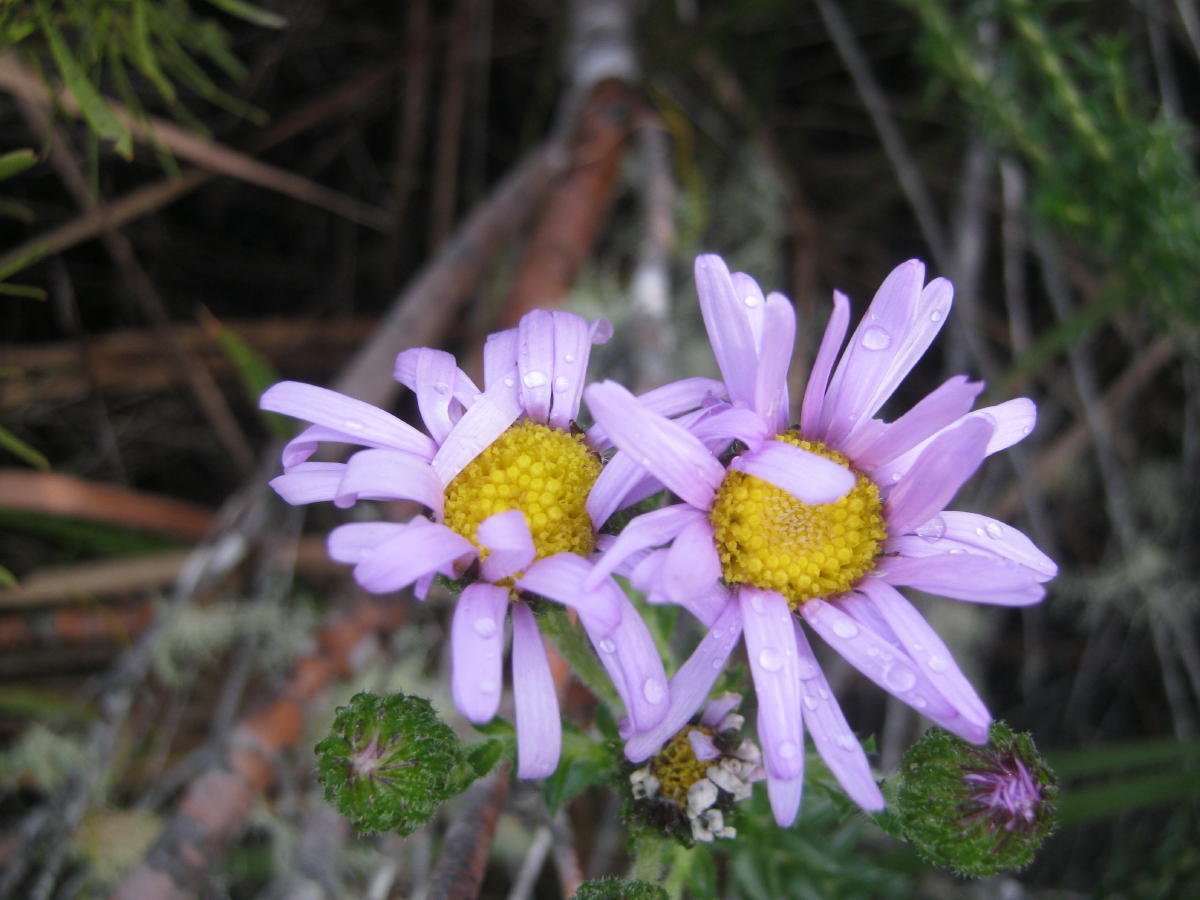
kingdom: Plantae
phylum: Tracheophyta
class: Magnoliopsida
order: Asterales
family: Asteraceae
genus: Felicia
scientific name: Felicia echinata
